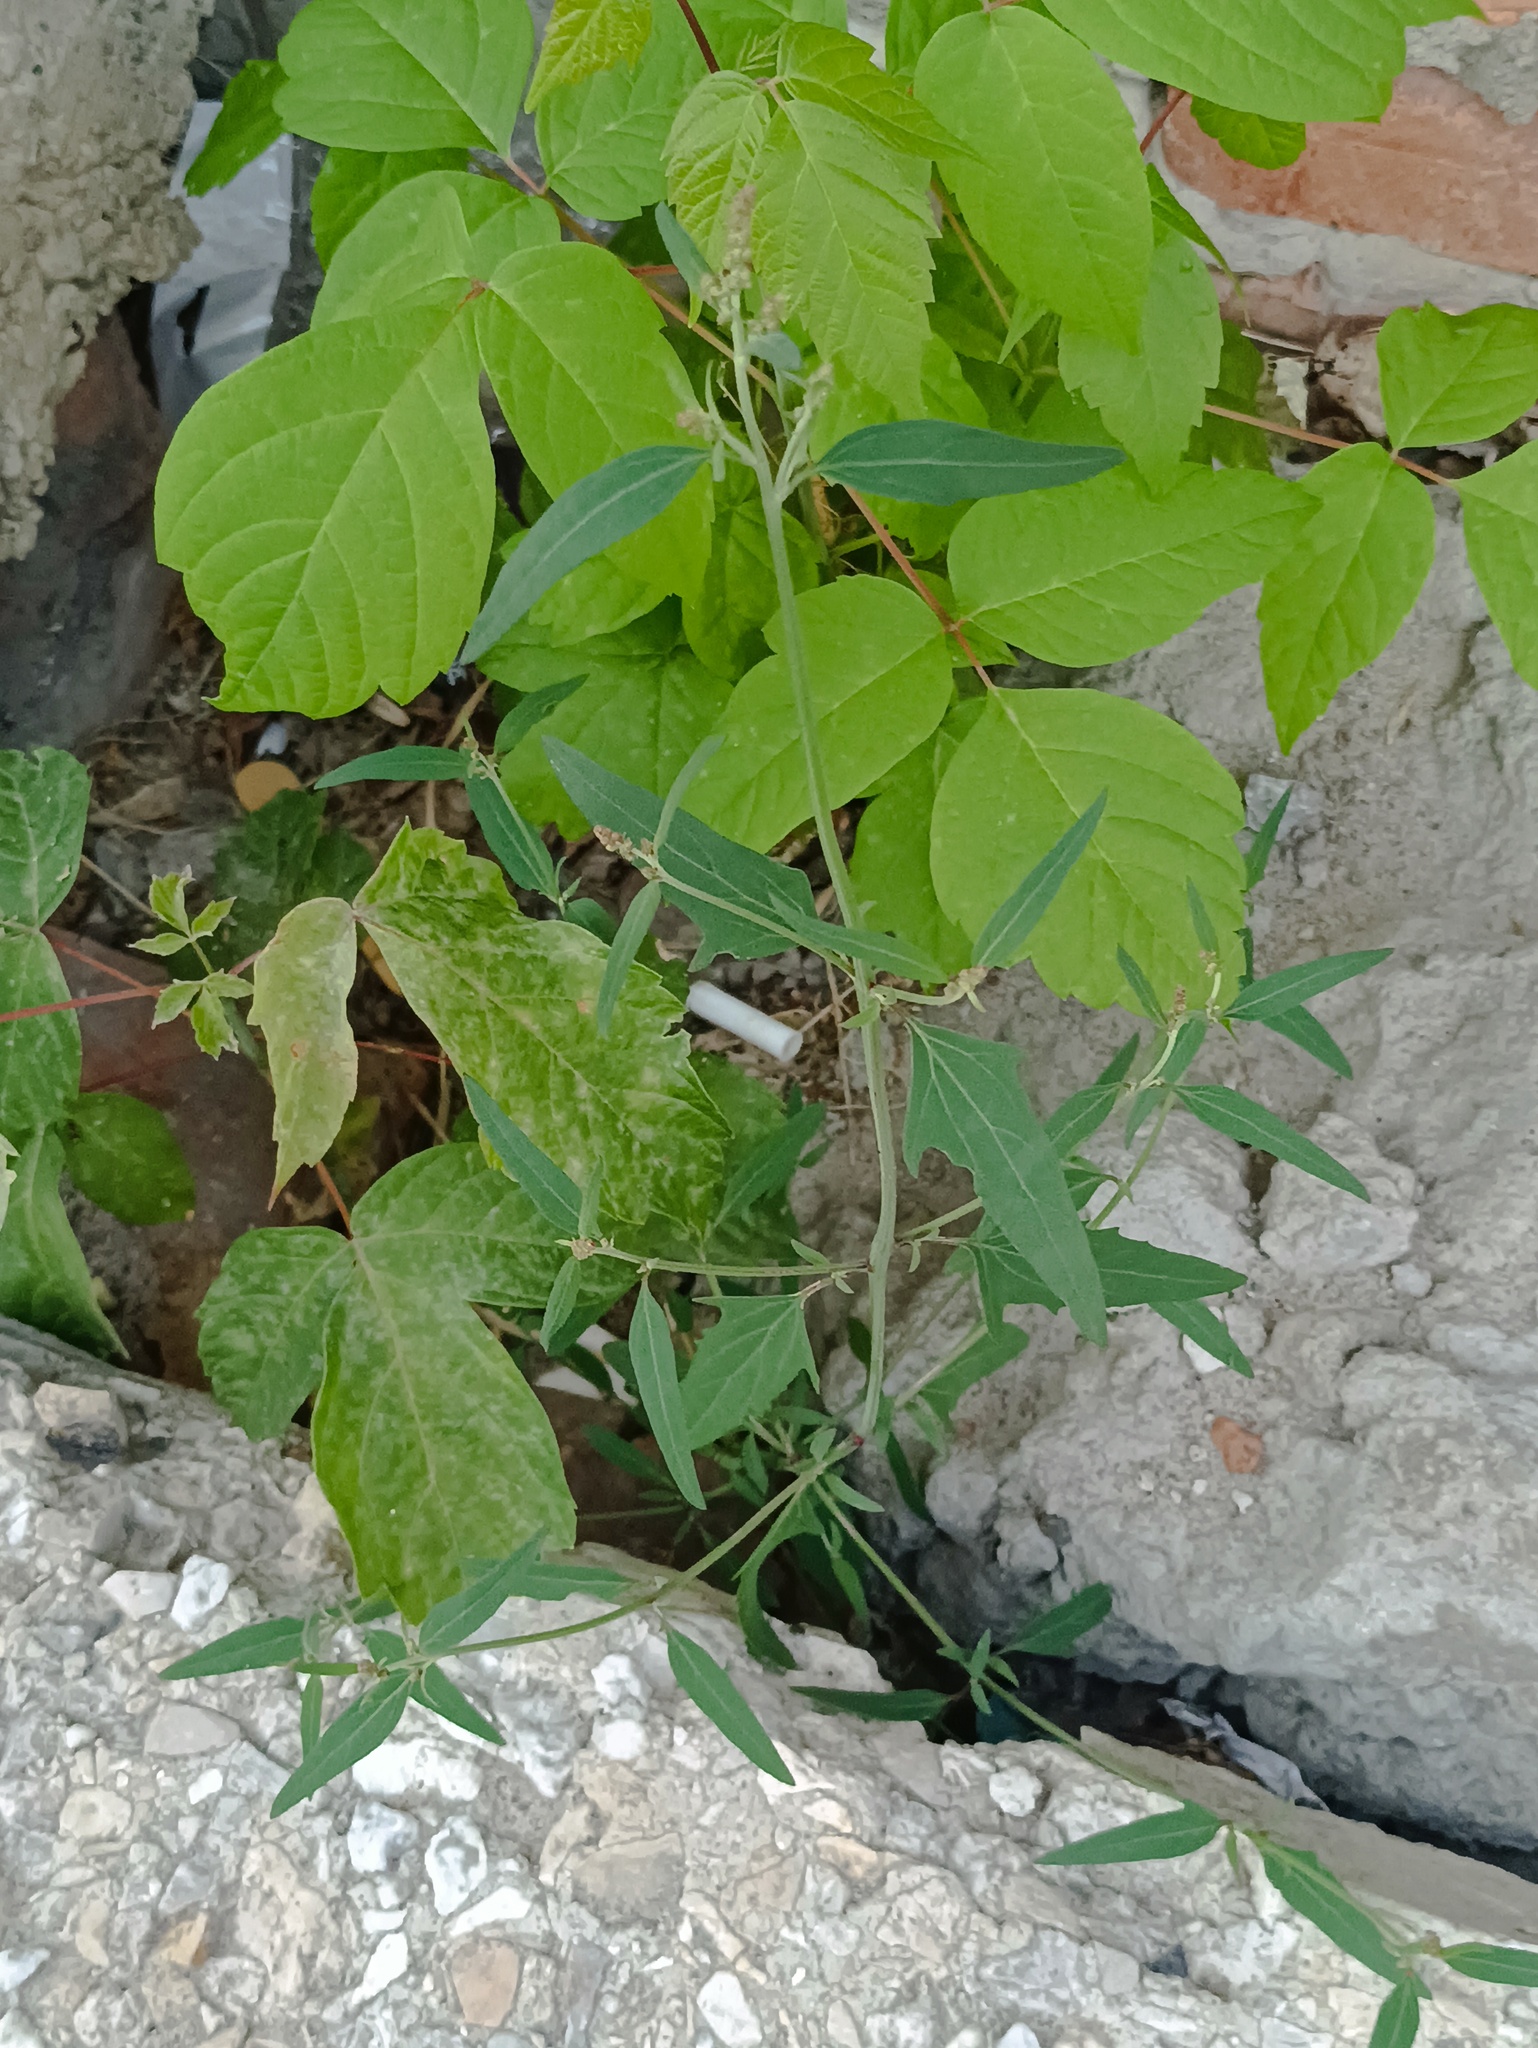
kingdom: Plantae
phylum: Tracheophyta
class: Magnoliopsida
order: Caryophyllales
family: Amaranthaceae
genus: Atriplex
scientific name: Atriplex patula
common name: Common orache
